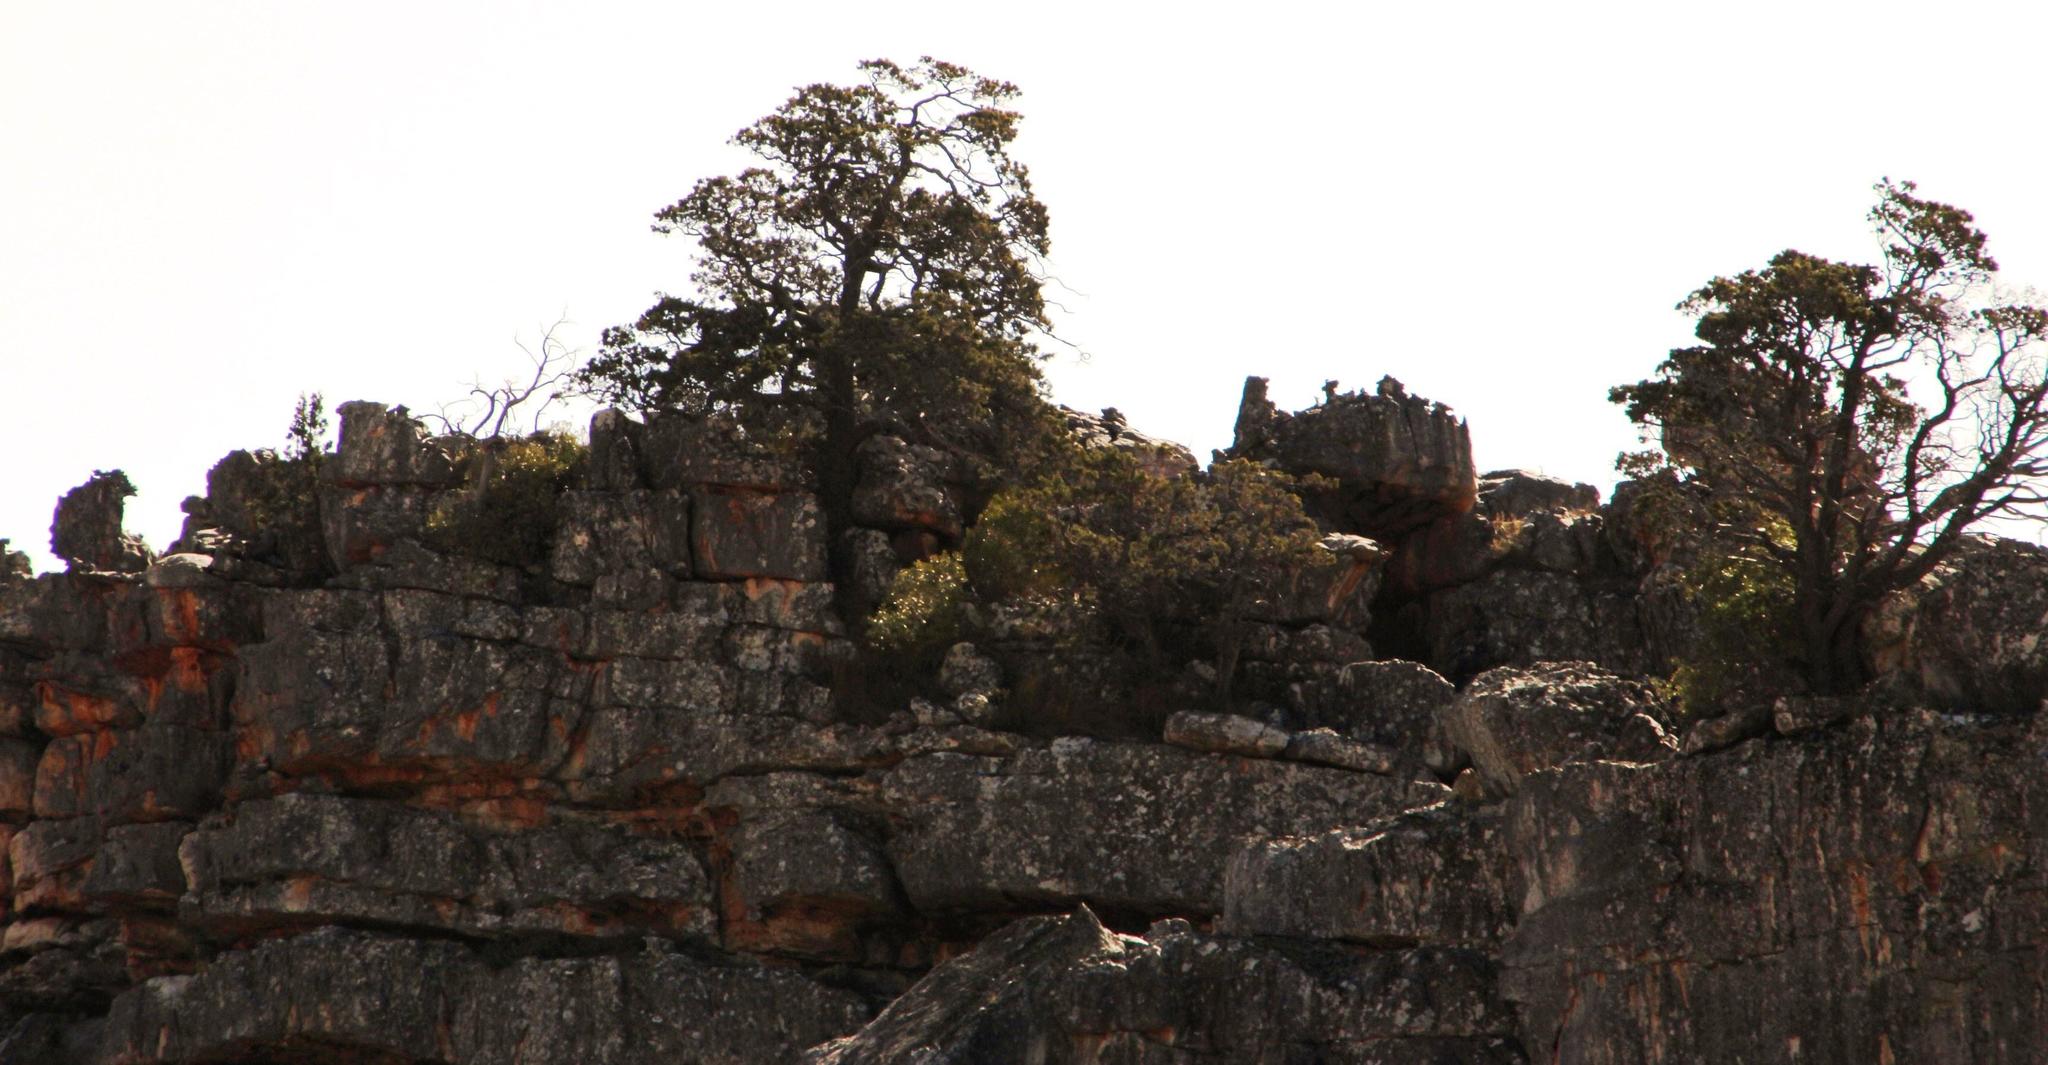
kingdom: Plantae
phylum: Tracheophyta
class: Pinopsida
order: Pinales
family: Cupressaceae
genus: Widdringtonia
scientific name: Widdringtonia nodiflora
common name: Cape cypress
